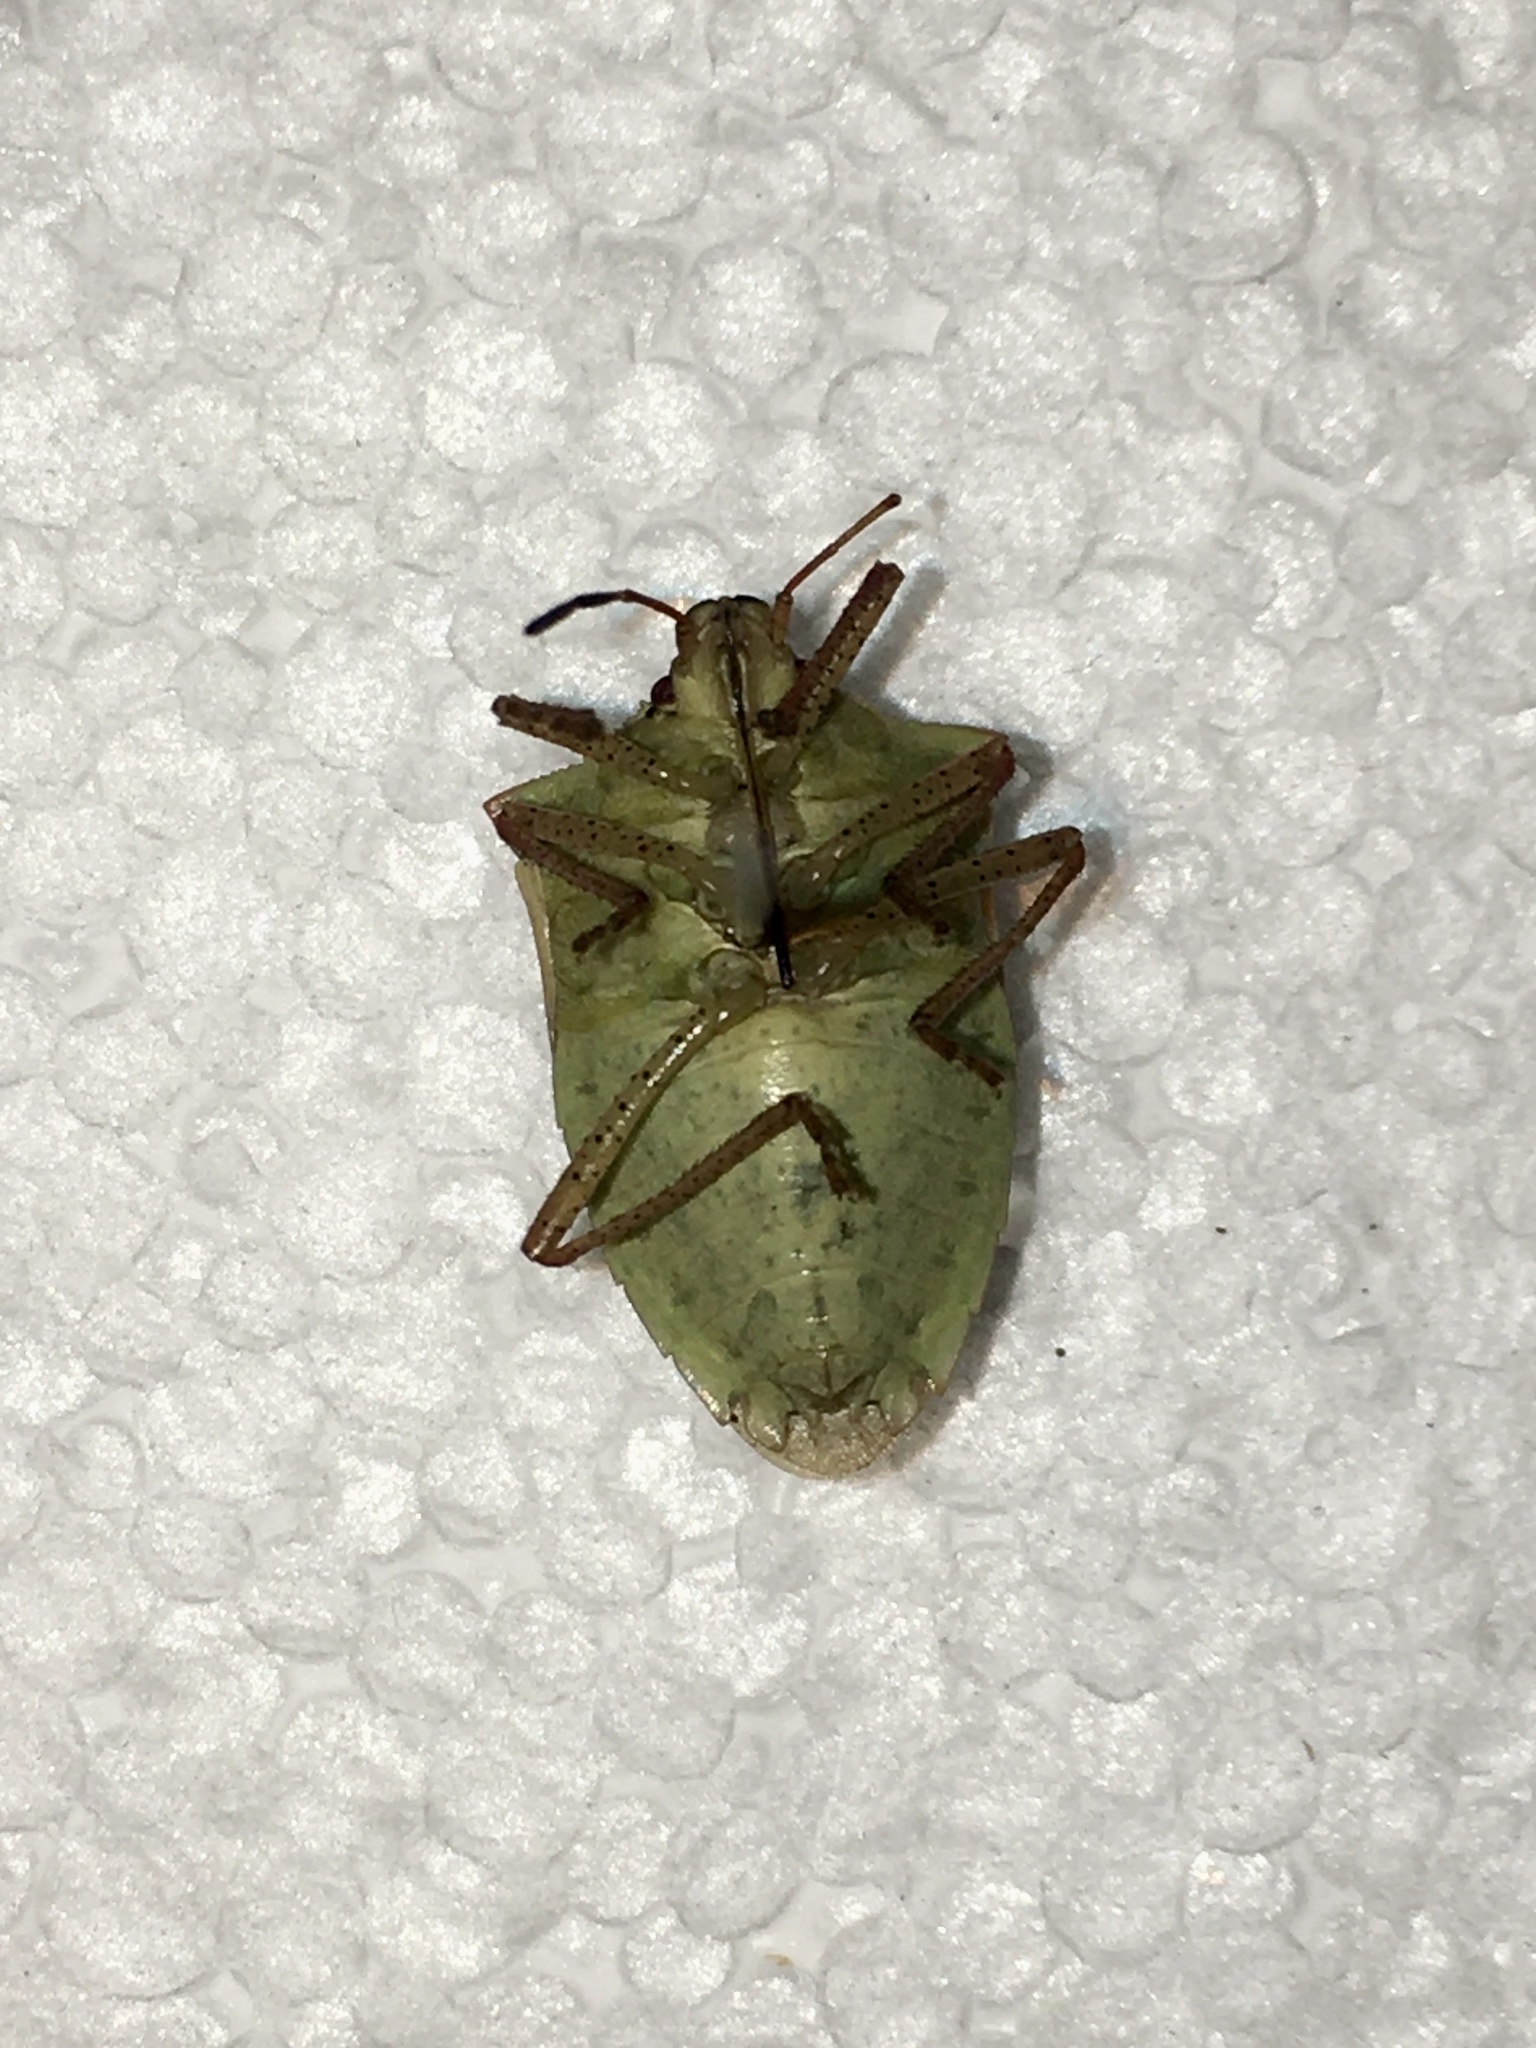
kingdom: Animalia
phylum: Arthropoda
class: Insecta
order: Hemiptera
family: Pentatomidae
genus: Euschistus
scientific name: Euschistus variolarius
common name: Onespotted stink bug
